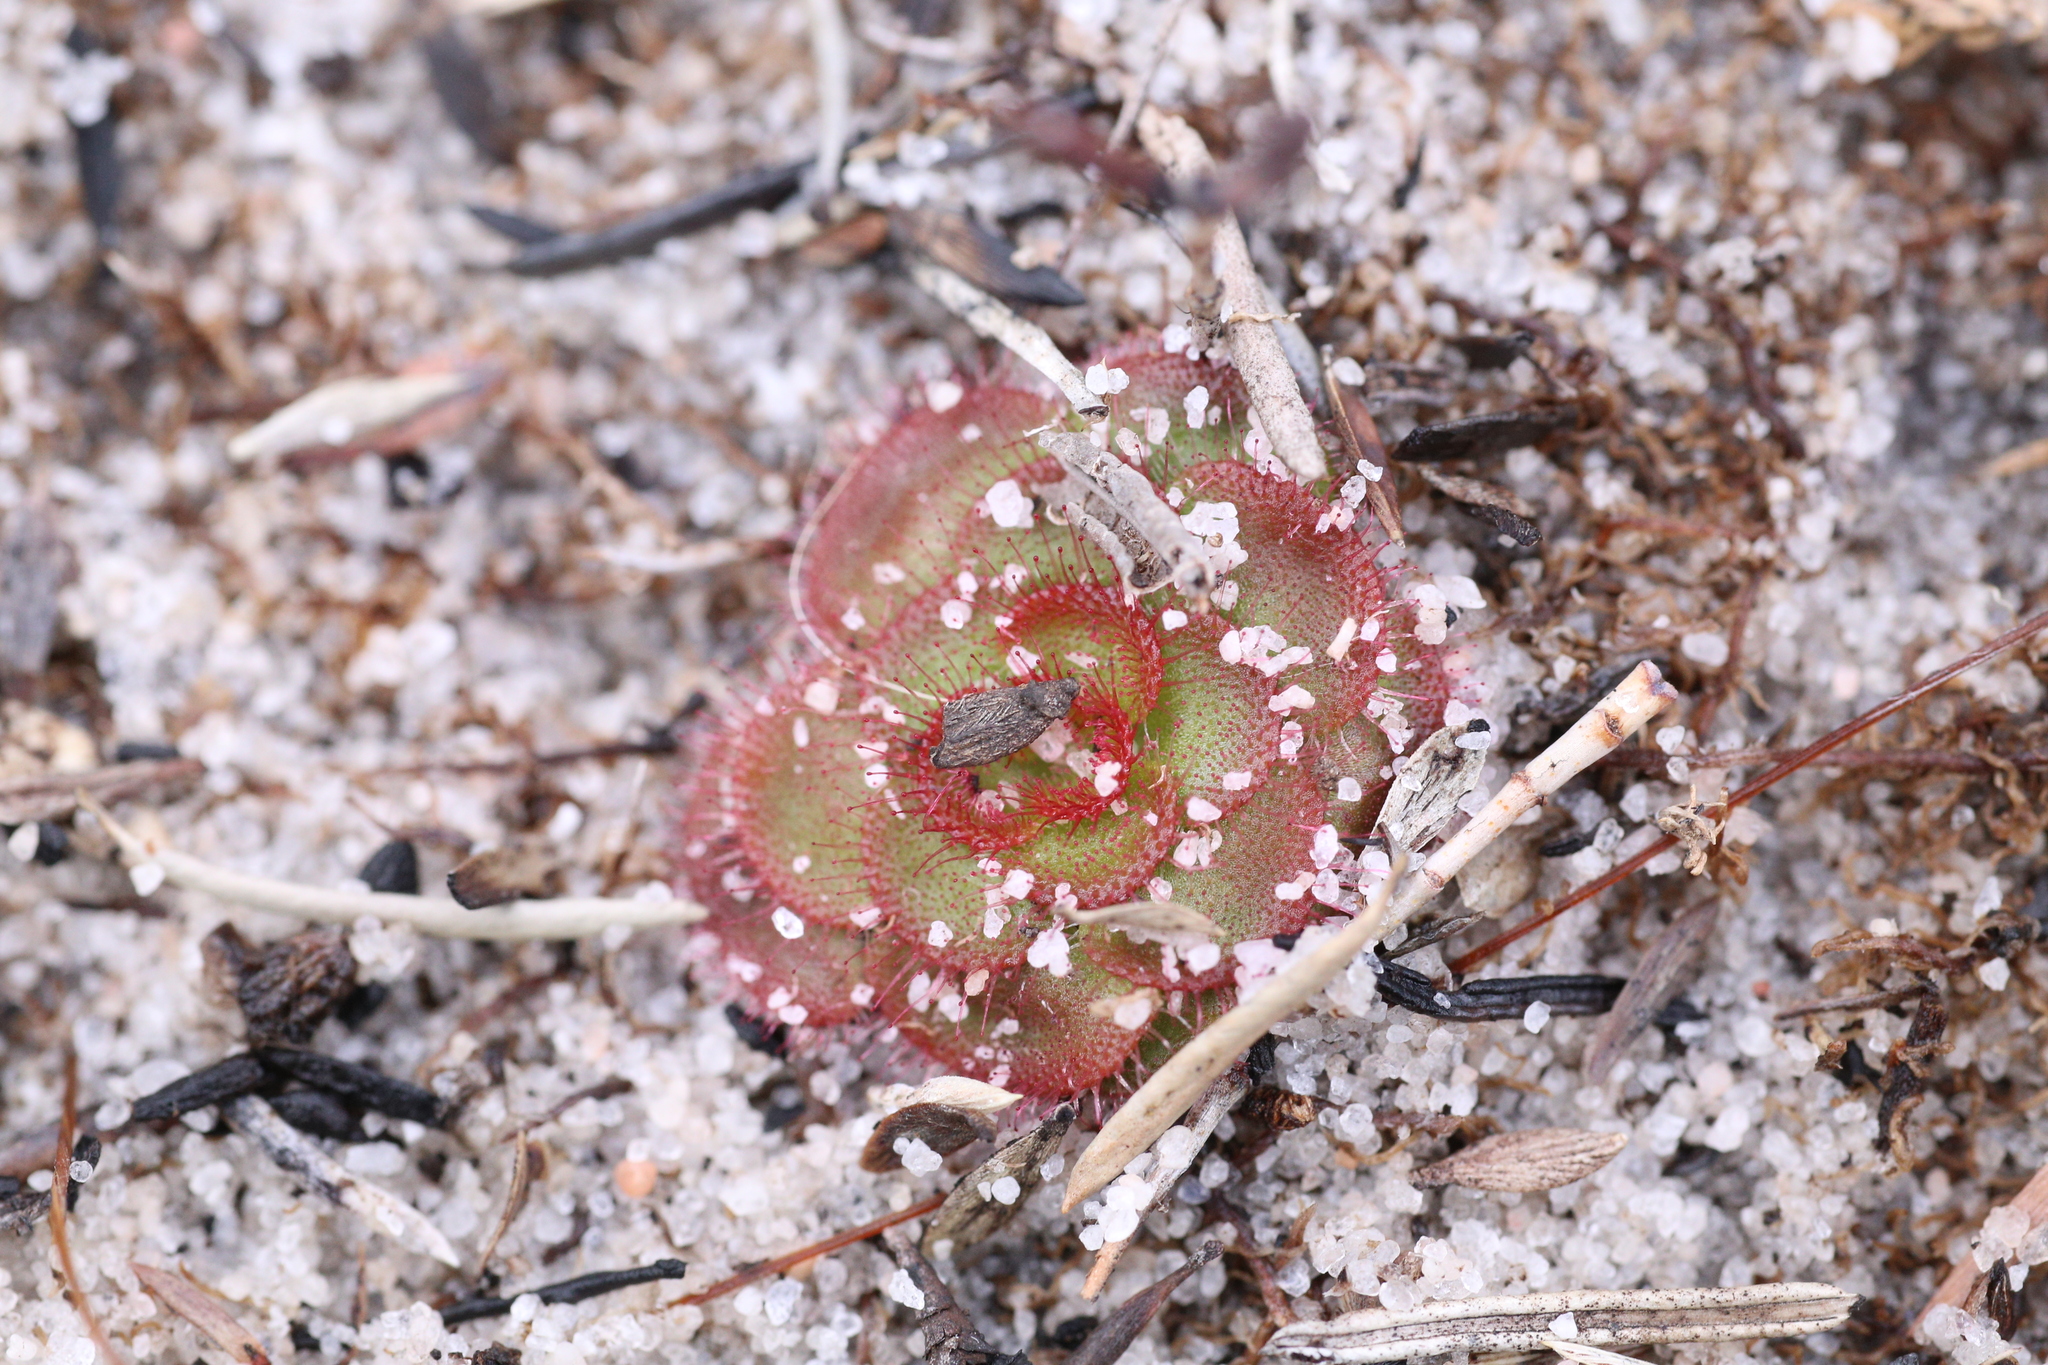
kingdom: Plantae
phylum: Tracheophyta
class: Magnoliopsida
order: Caryophyllales
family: Droseraceae
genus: Drosera
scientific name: Drosera zonaria
